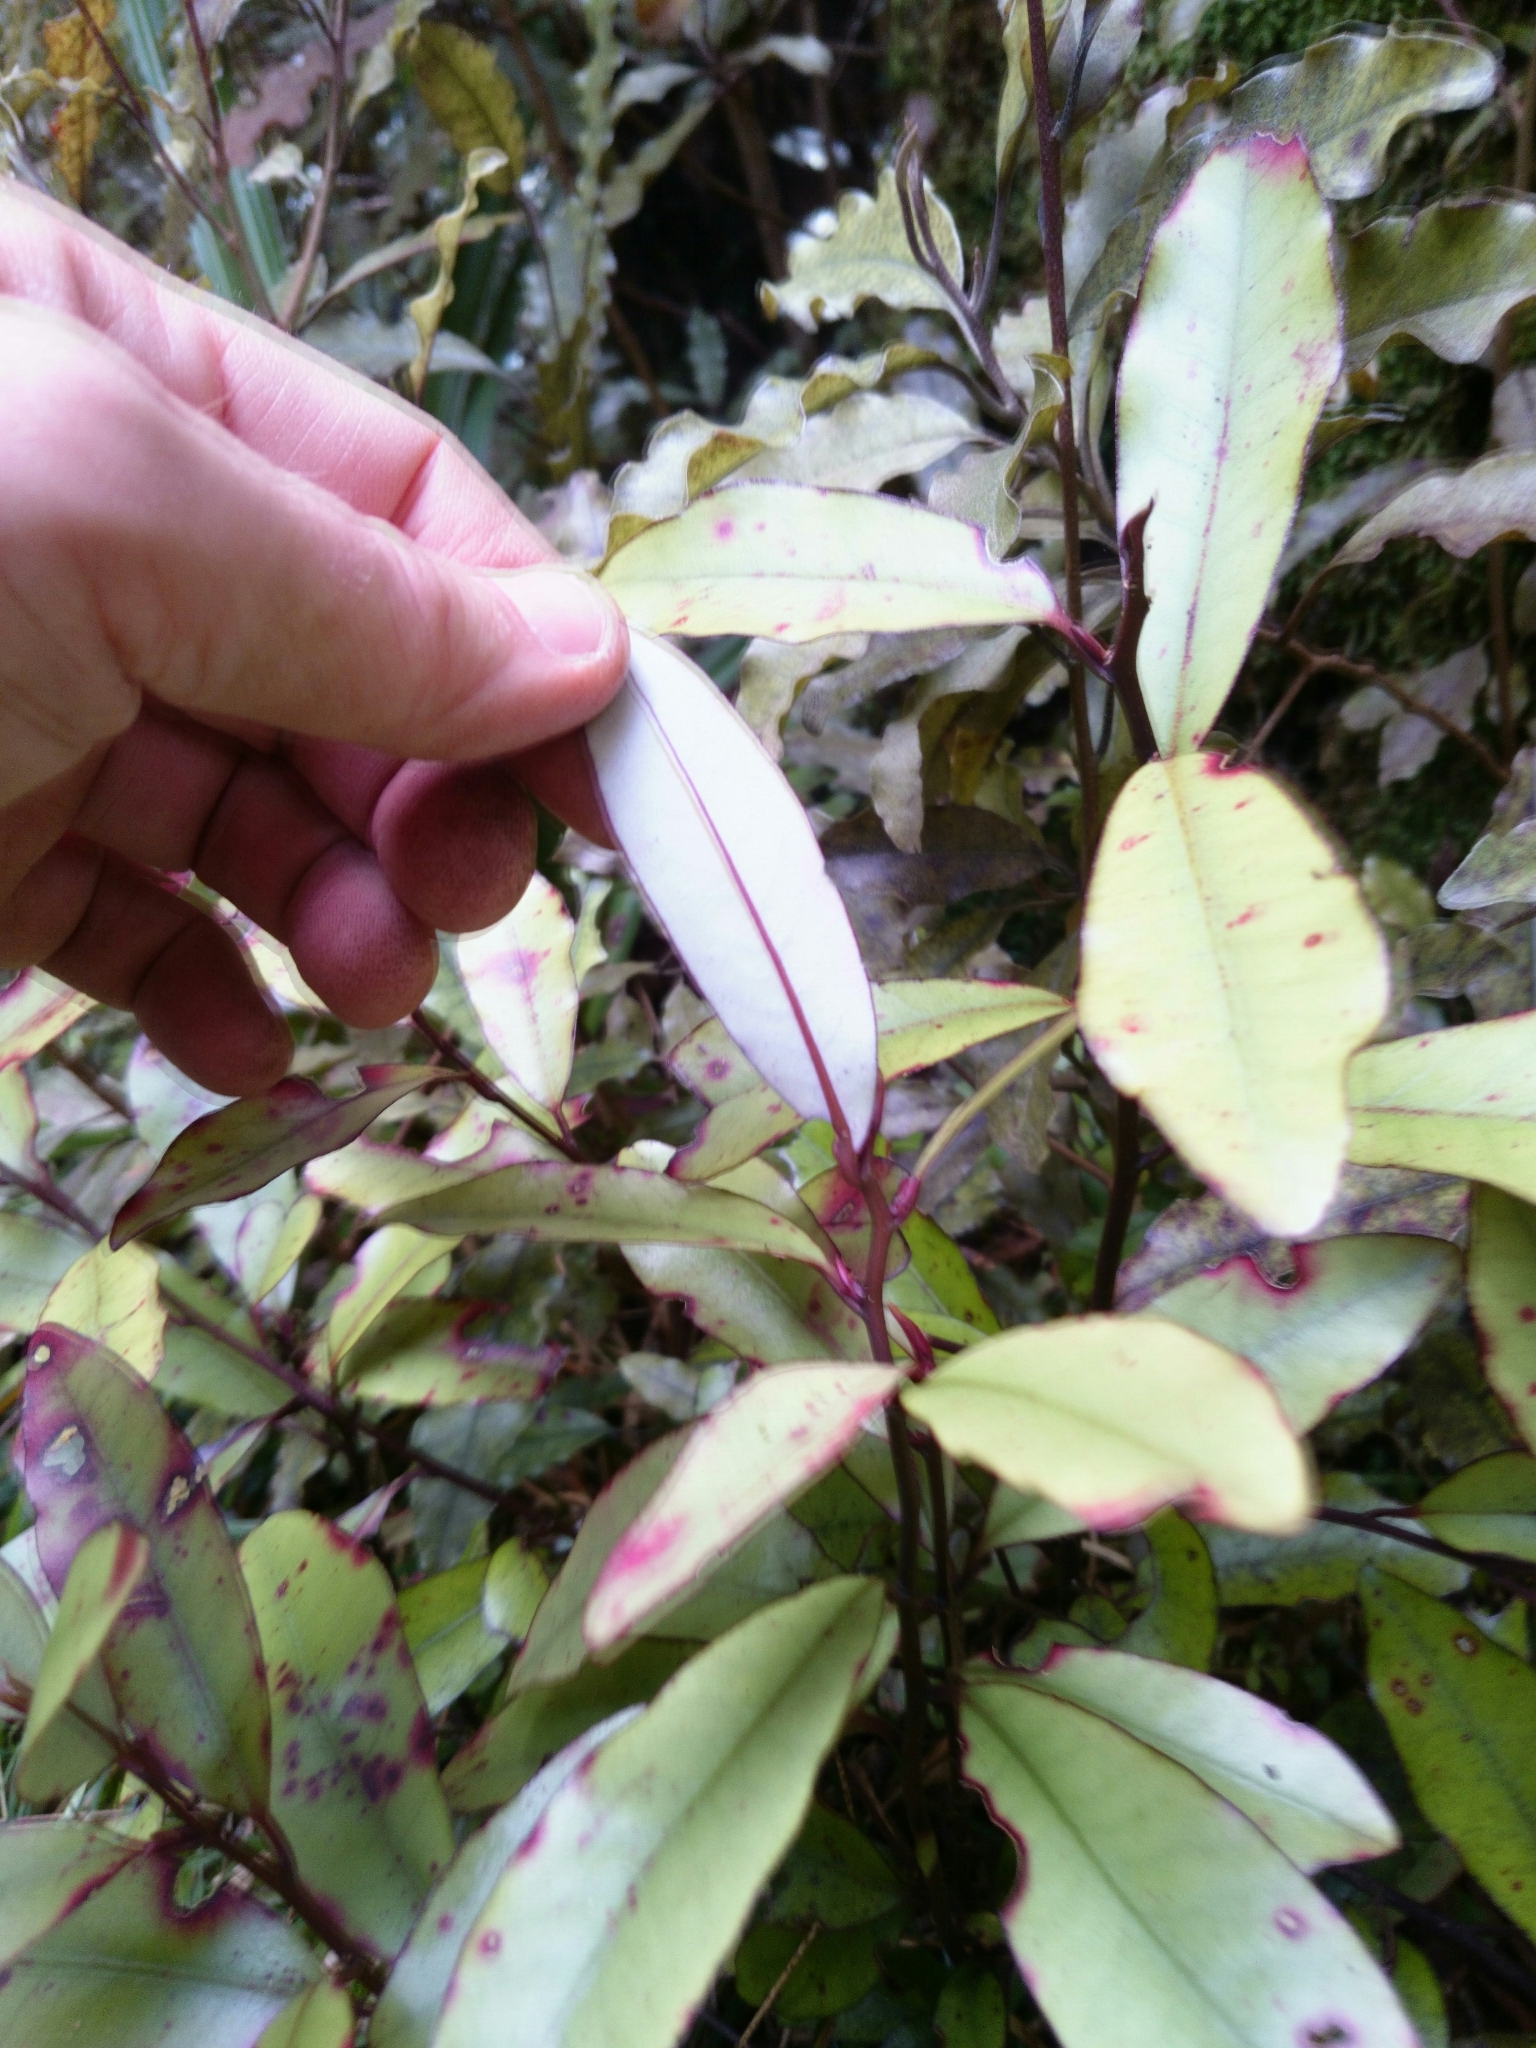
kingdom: Plantae
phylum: Tracheophyta
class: Magnoliopsida
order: Canellales
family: Winteraceae
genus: Pseudowintera
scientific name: Pseudowintera colorata
